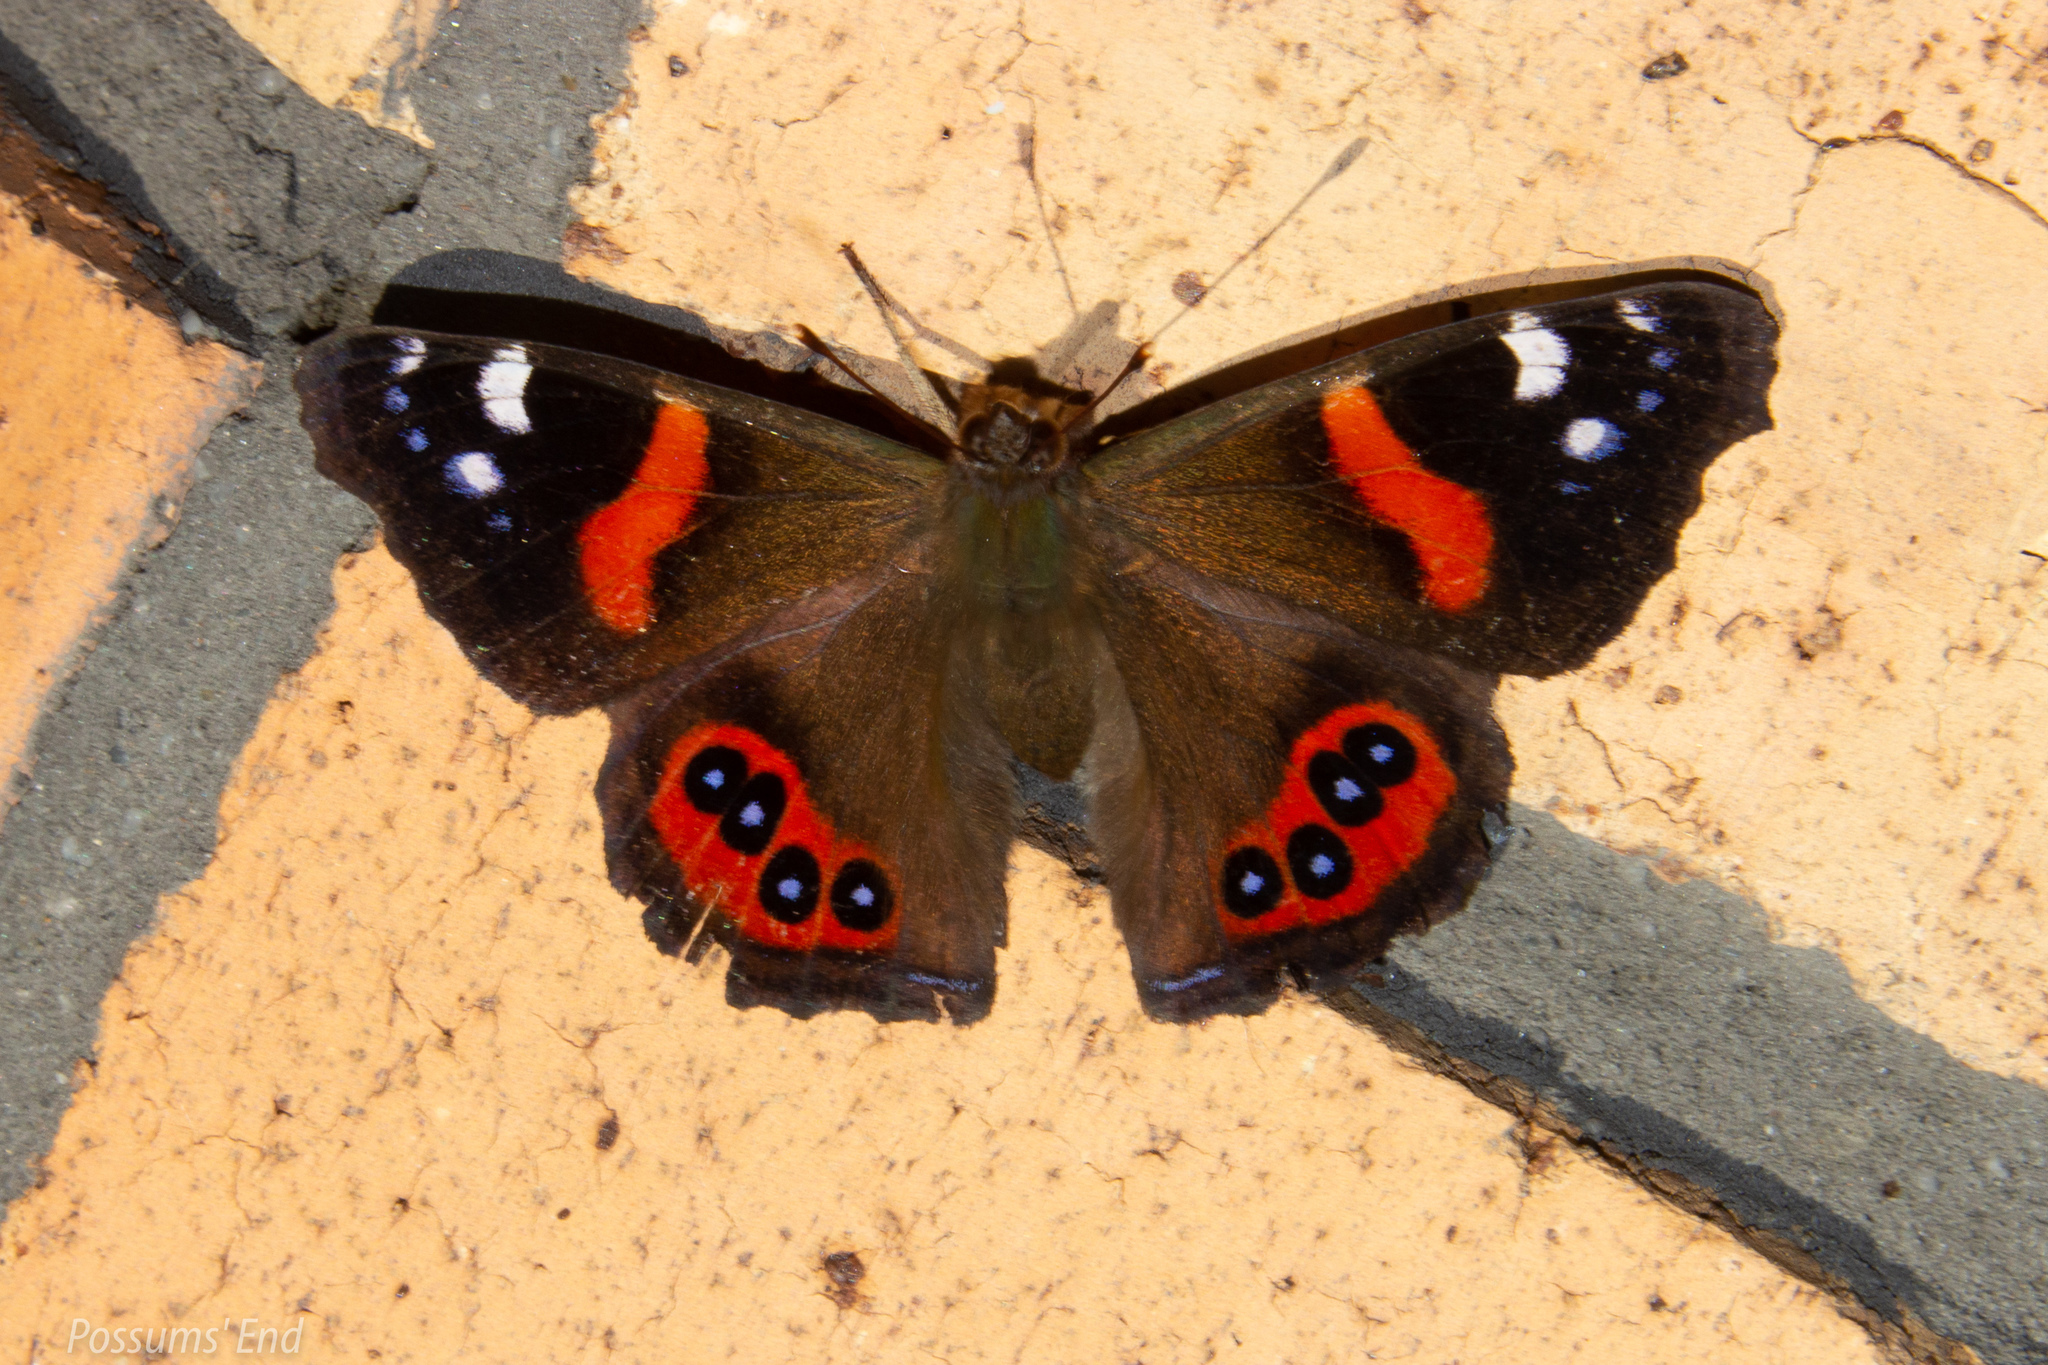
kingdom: Animalia
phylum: Arthropoda
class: Insecta
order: Lepidoptera
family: Nymphalidae
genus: Vanessa
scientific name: Vanessa gonerilla
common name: New zealand red admiral
